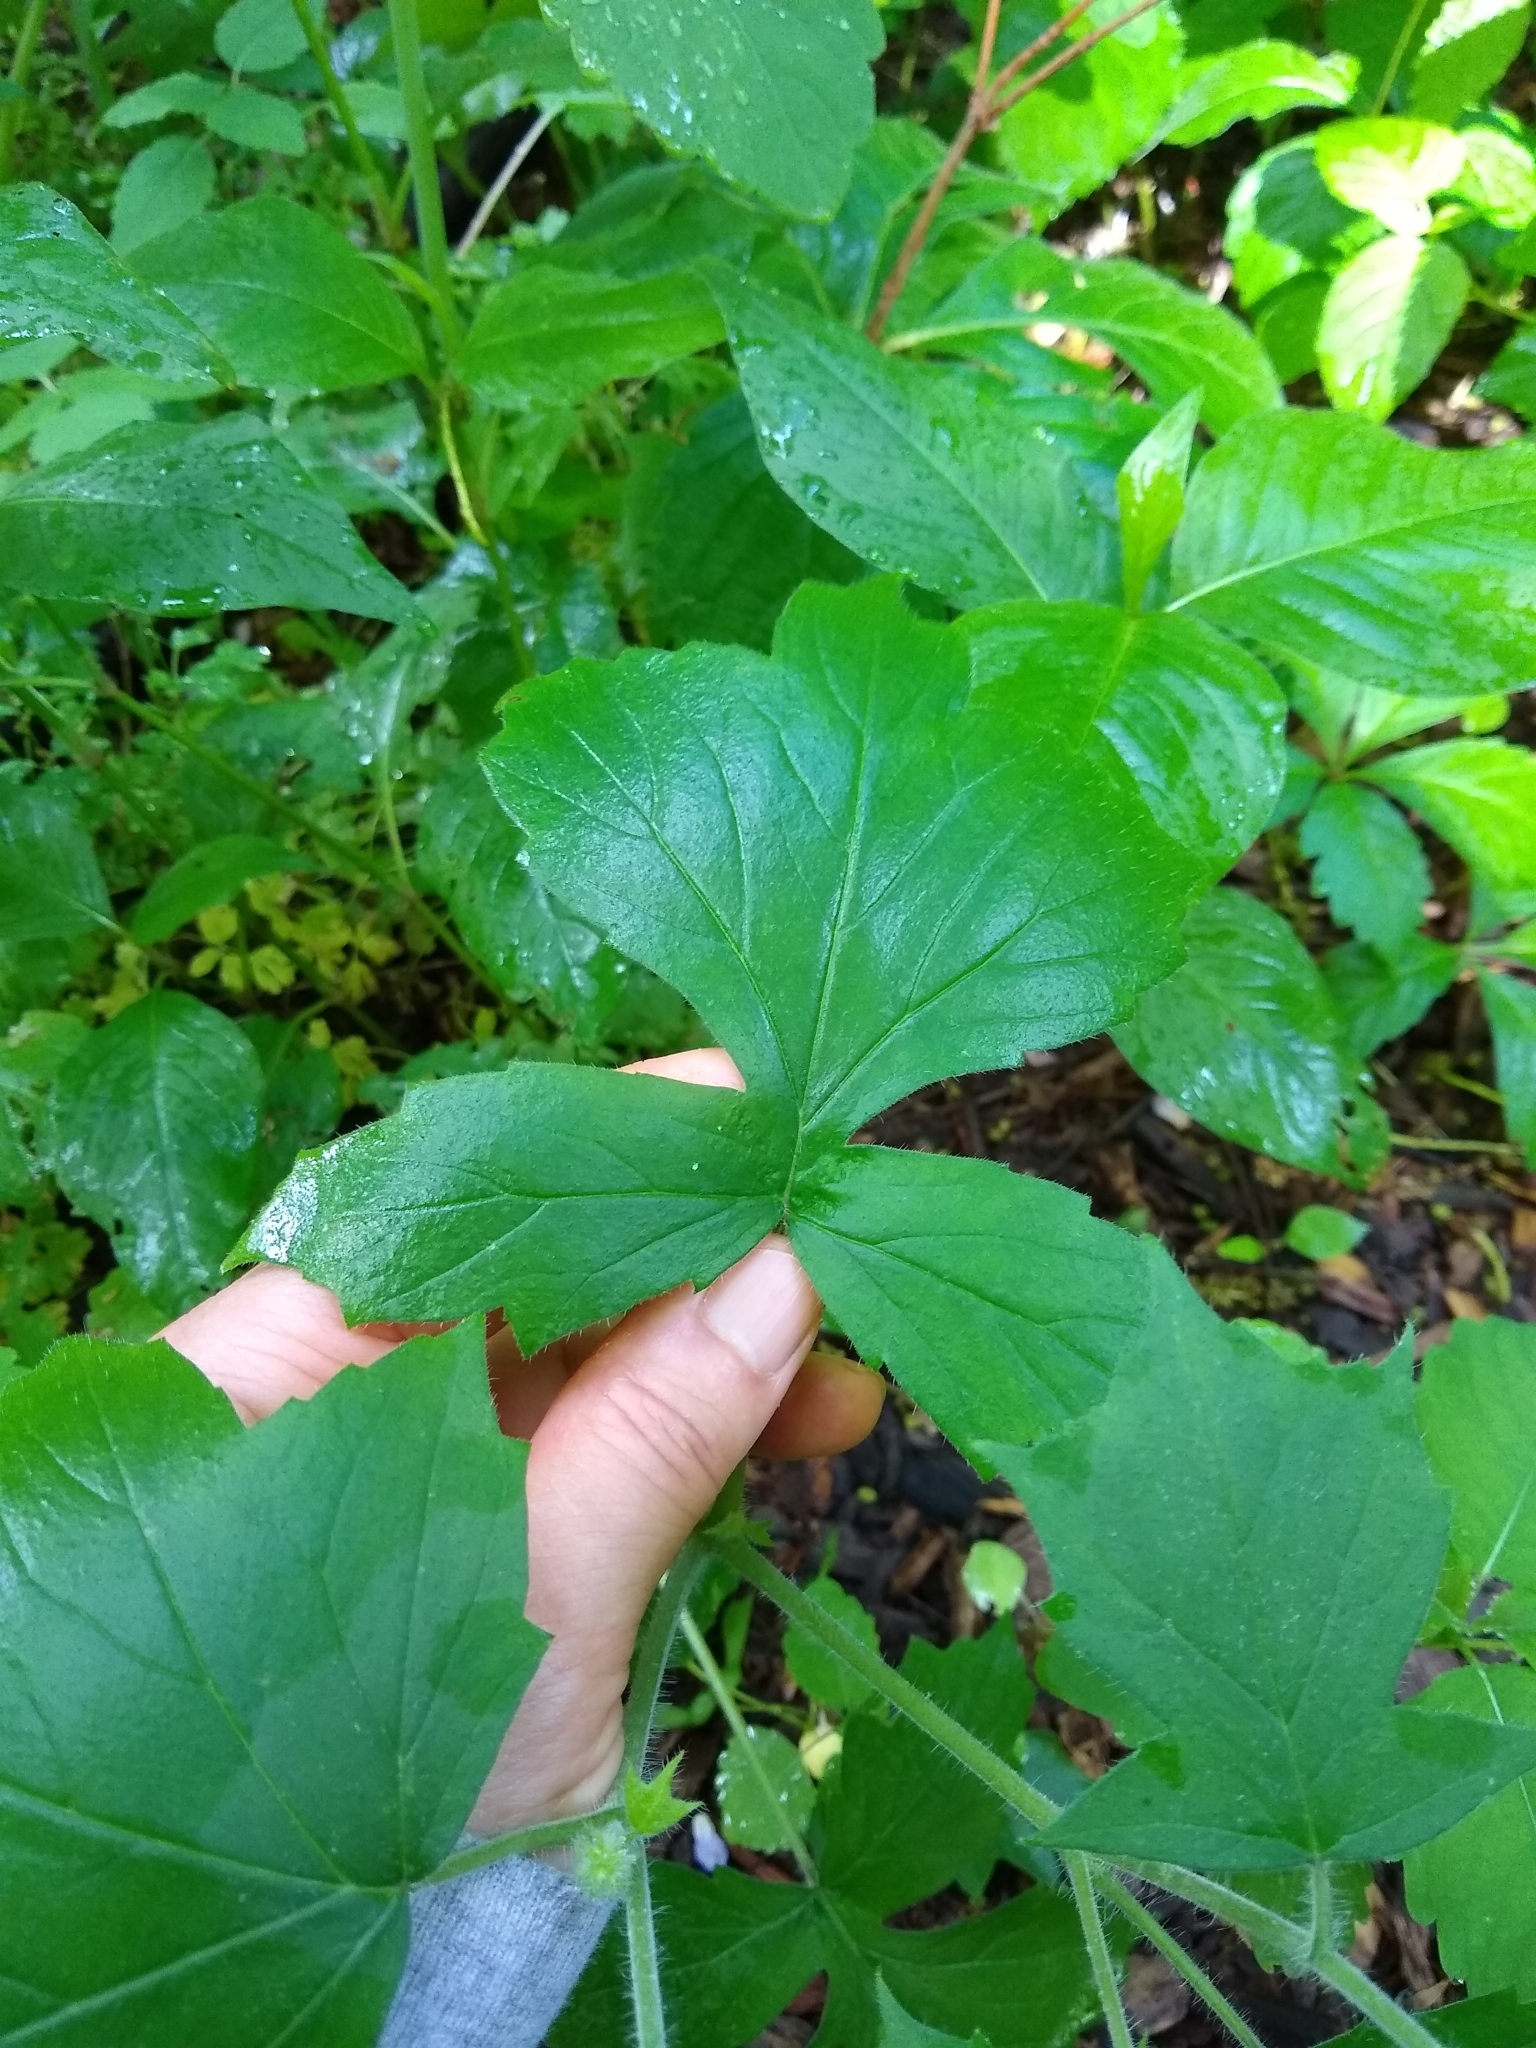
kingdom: Plantae
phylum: Tracheophyta
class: Magnoliopsida
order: Boraginales
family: Hydrophyllaceae
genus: Hydrophyllum
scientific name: Hydrophyllum appendiculatum
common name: Appendaged waterleaf
